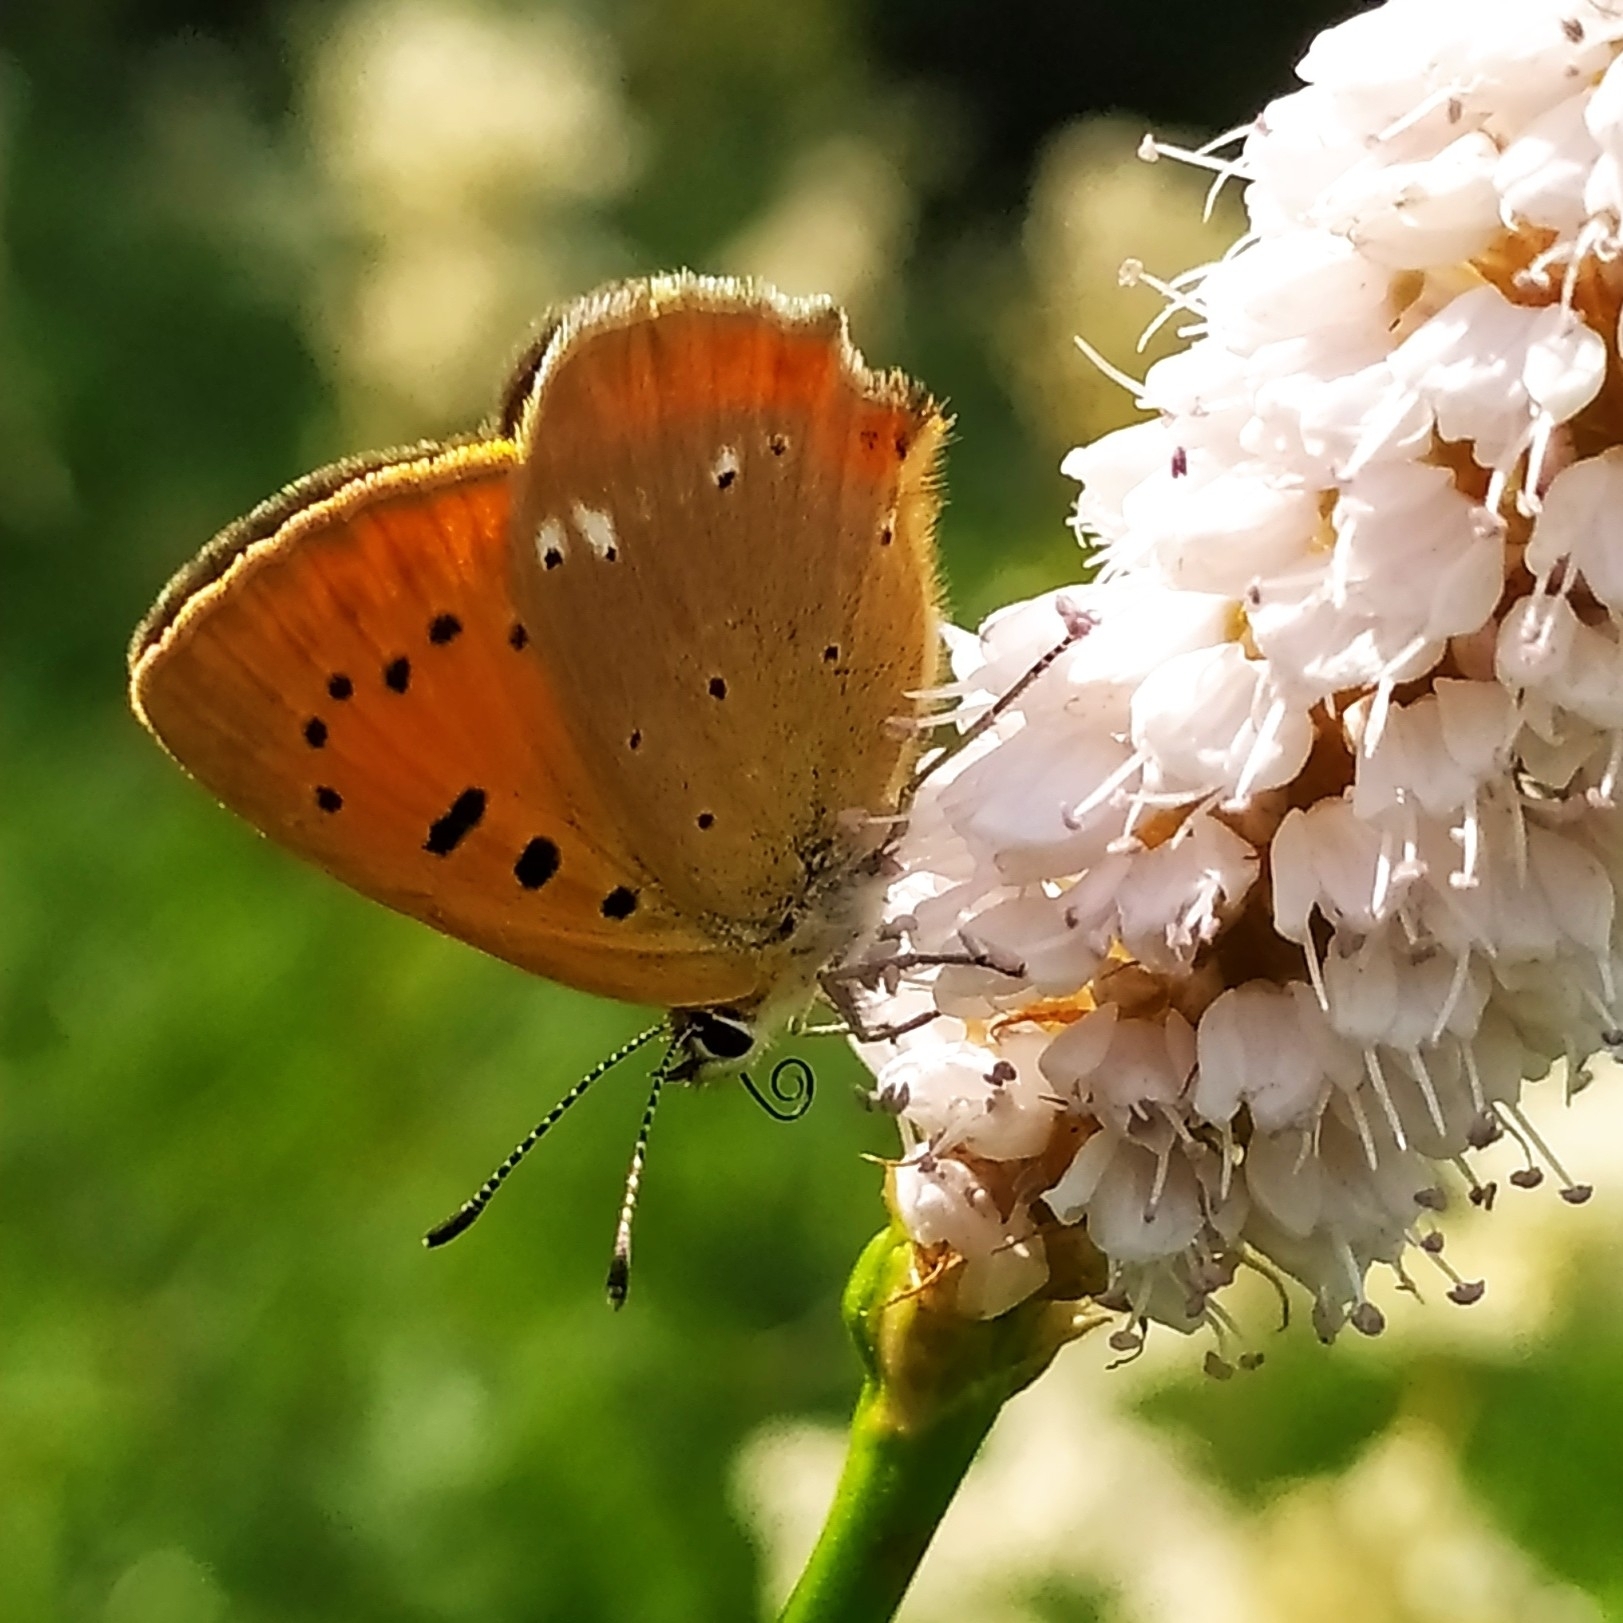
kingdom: Animalia
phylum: Arthropoda
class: Insecta
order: Lepidoptera
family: Lycaenidae
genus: Lycaena
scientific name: Lycaena virgaureae
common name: Scarce copper
